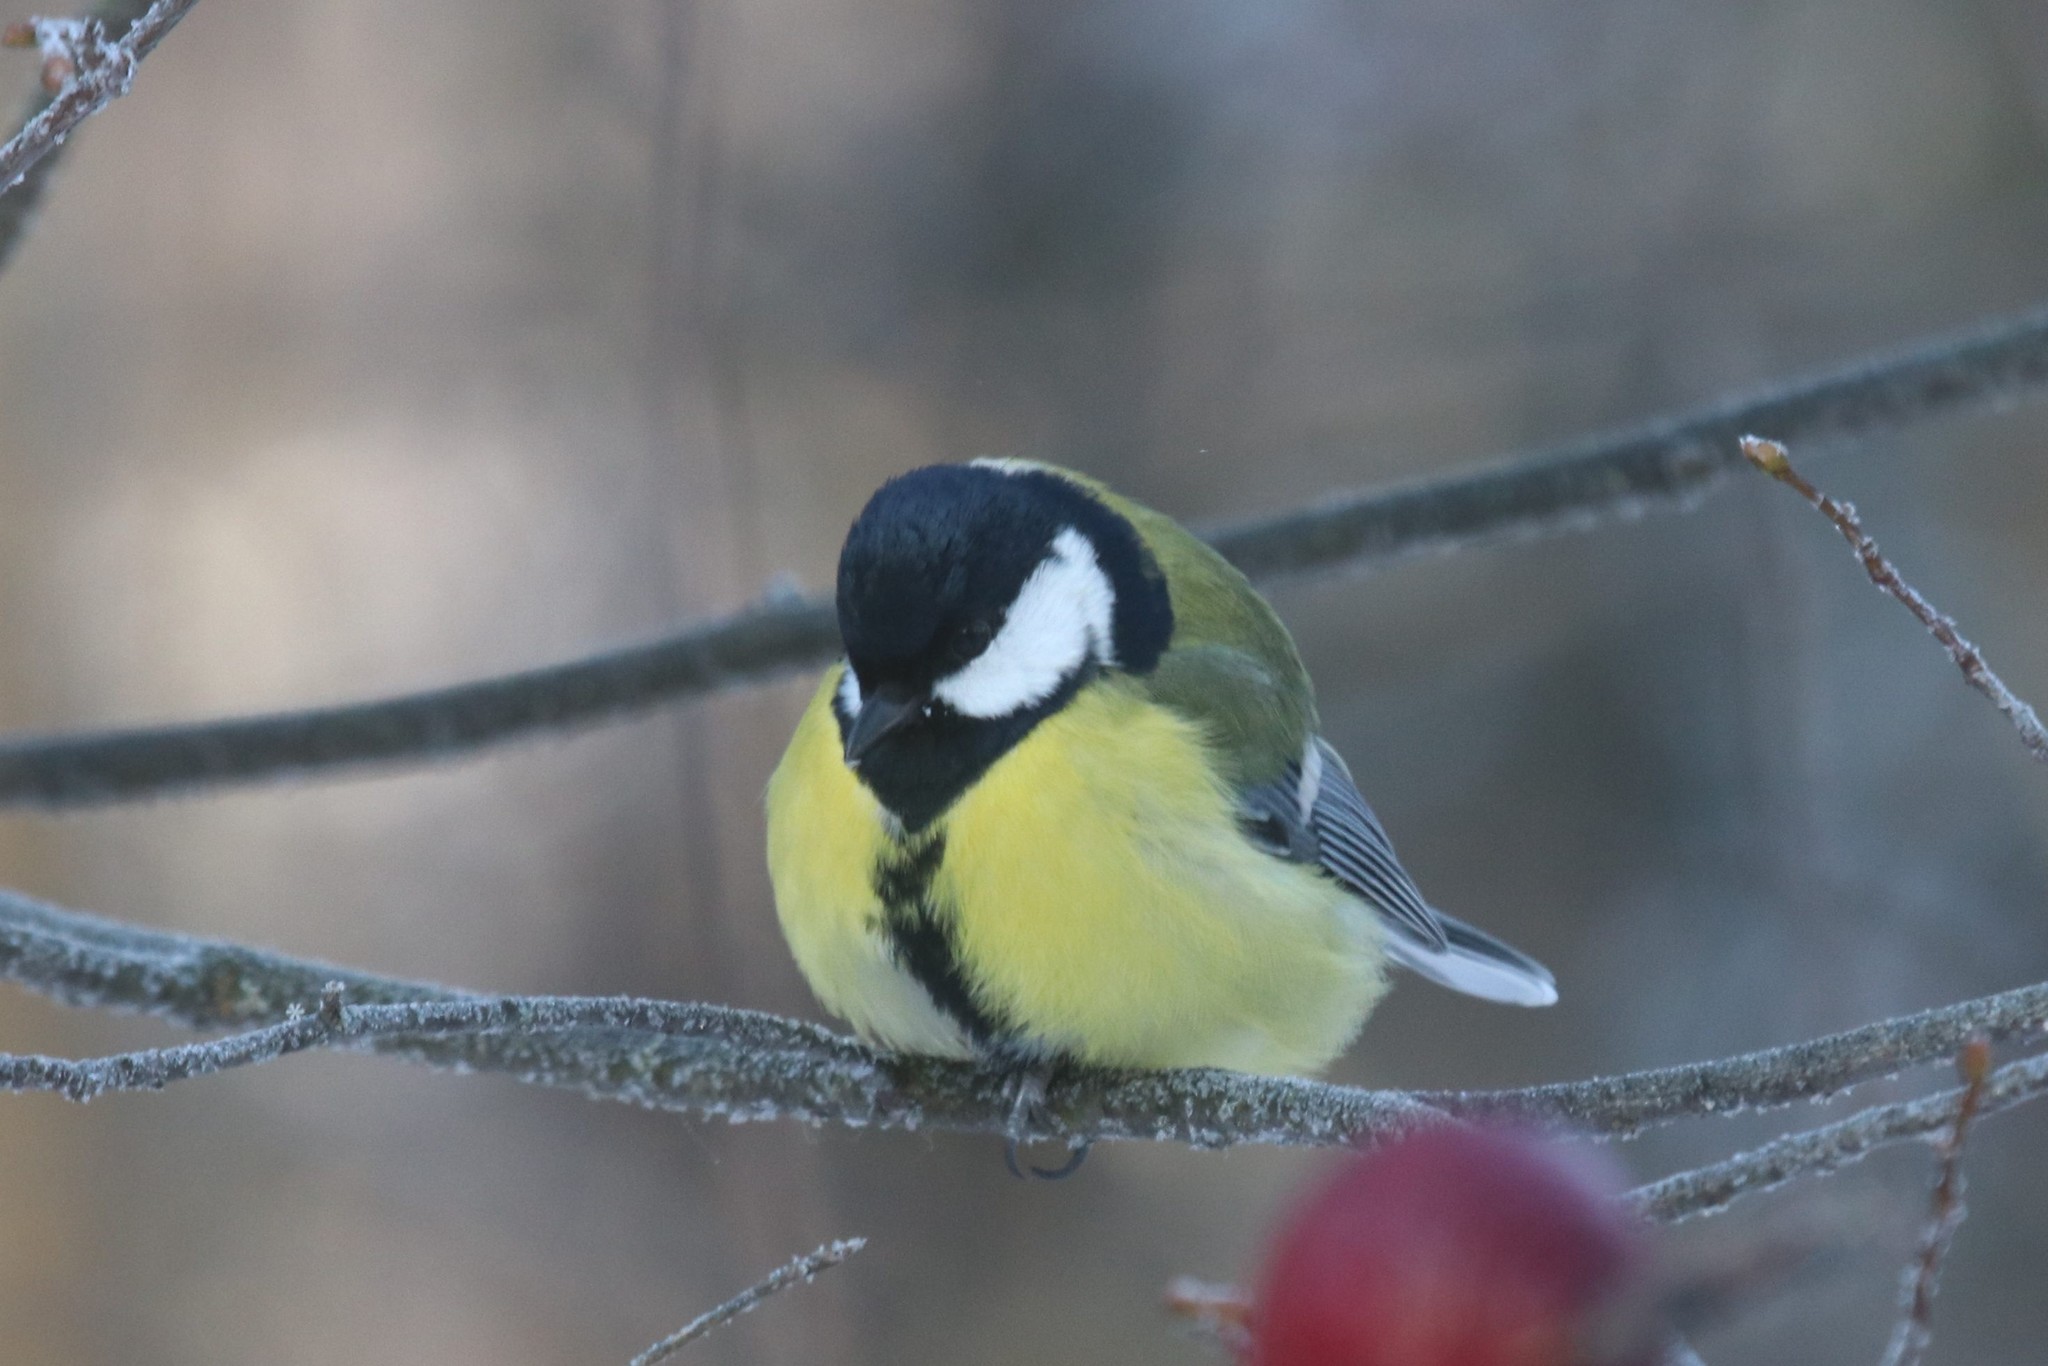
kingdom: Animalia
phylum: Chordata
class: Aves
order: Passeriformes
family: Paridae
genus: Parus
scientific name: Parus major
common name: Great tit
